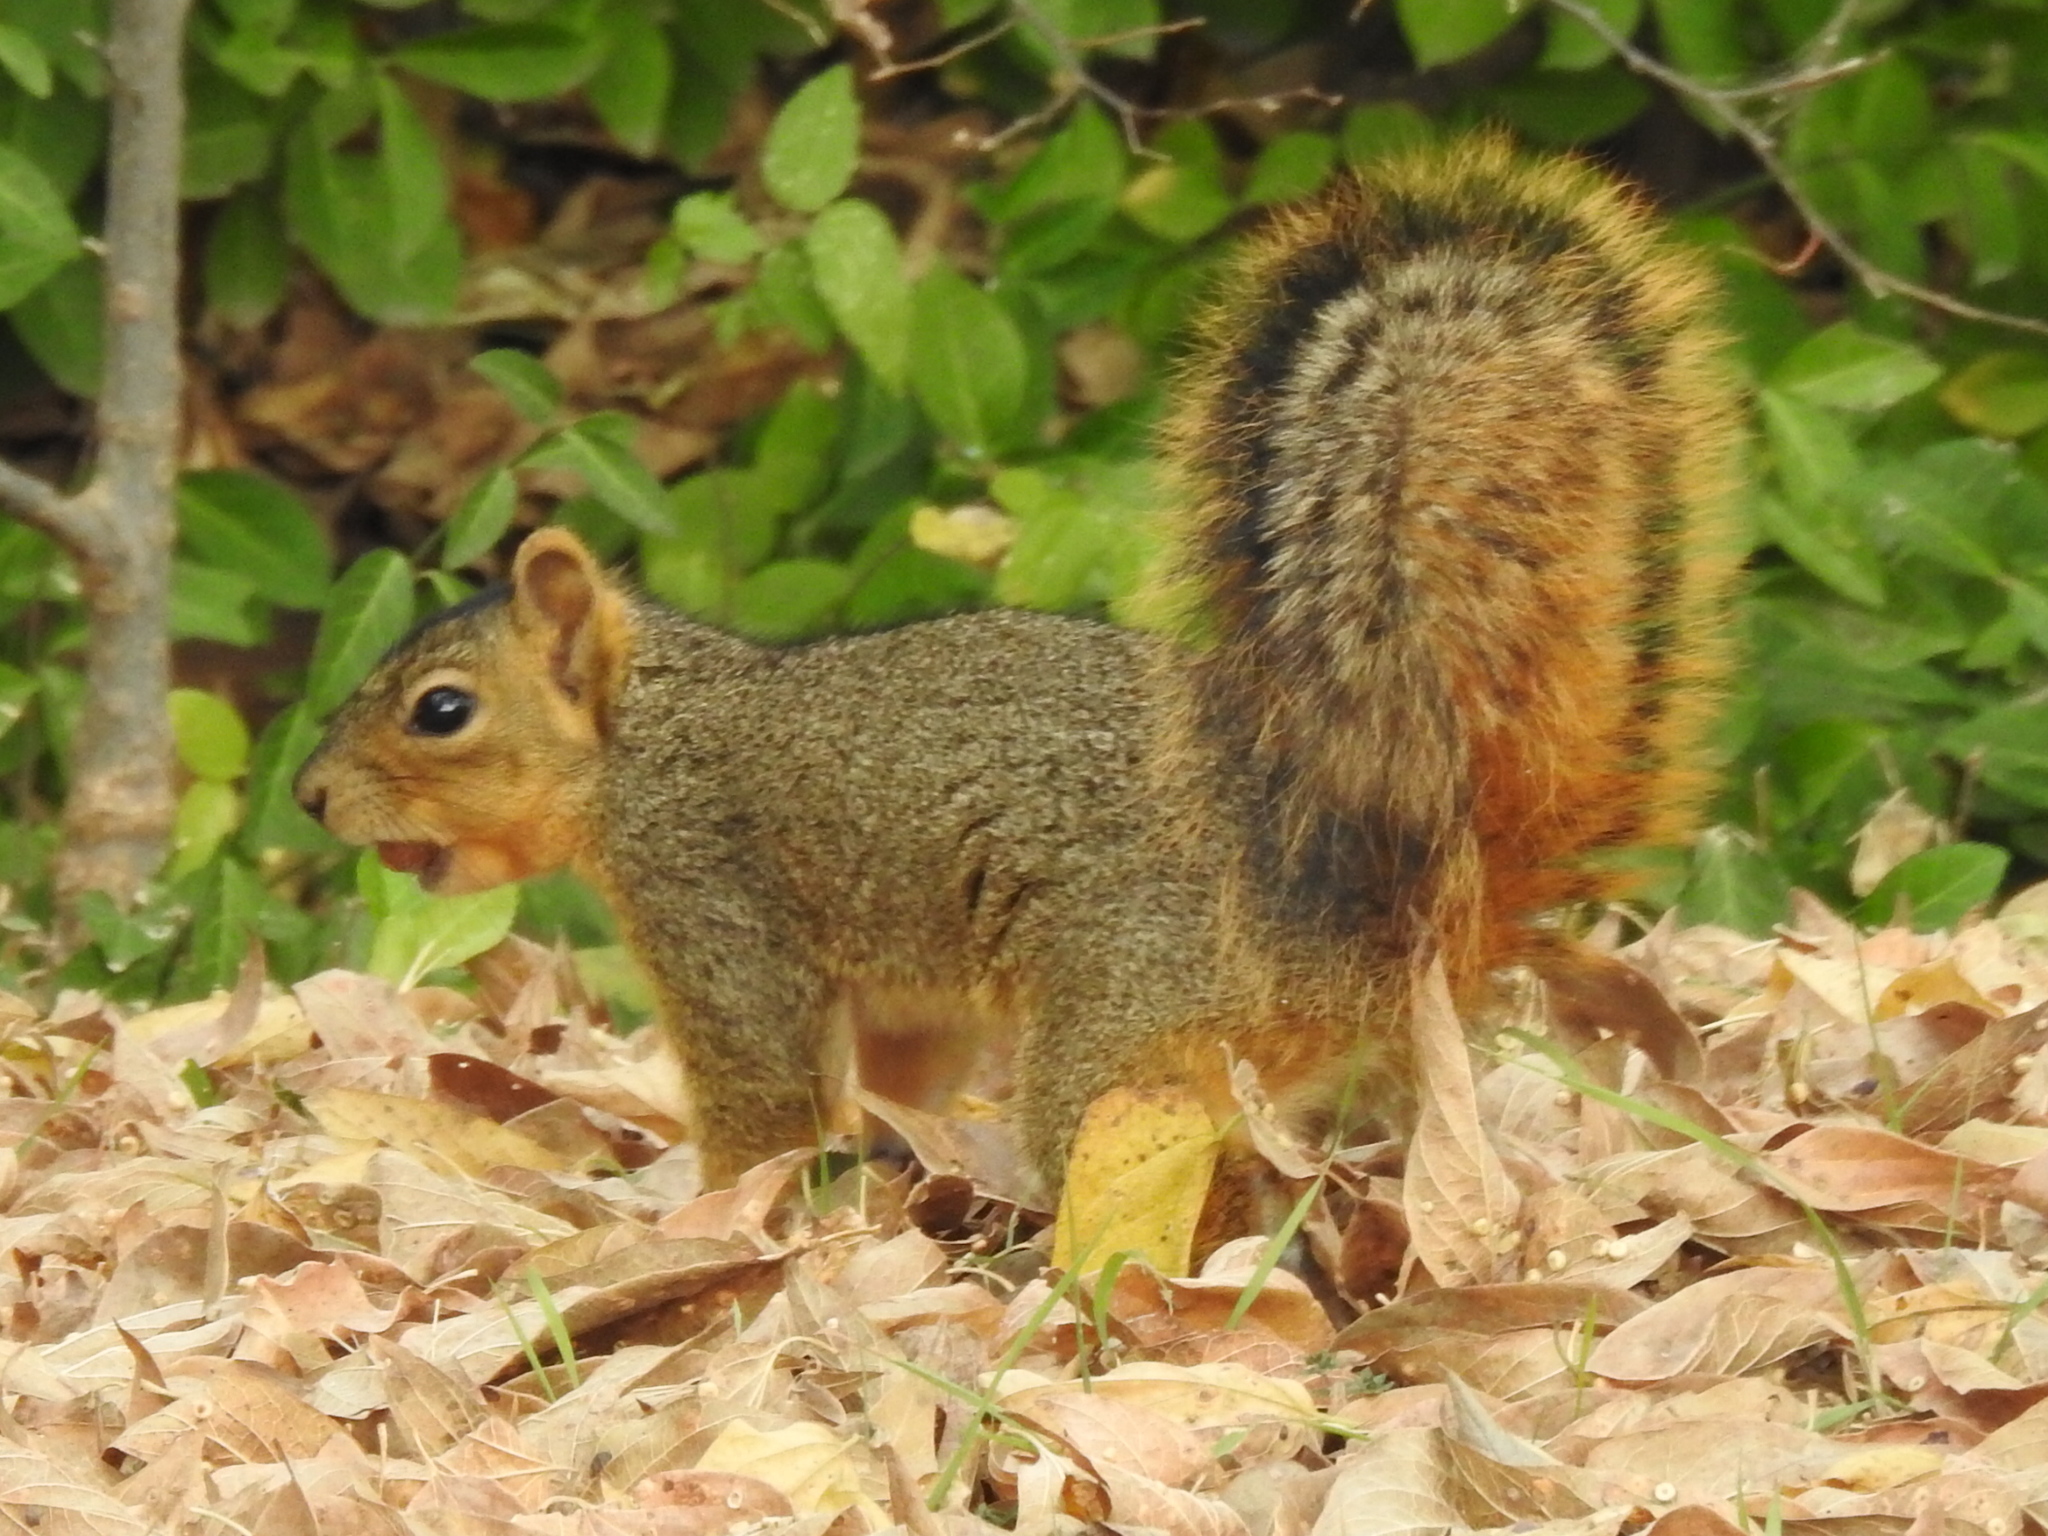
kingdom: Animalia
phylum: Chordata
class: Mammalia
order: Rodentia
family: Sciuridae
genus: Sciurus
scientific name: Sciurus niger
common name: Fox squirrel
